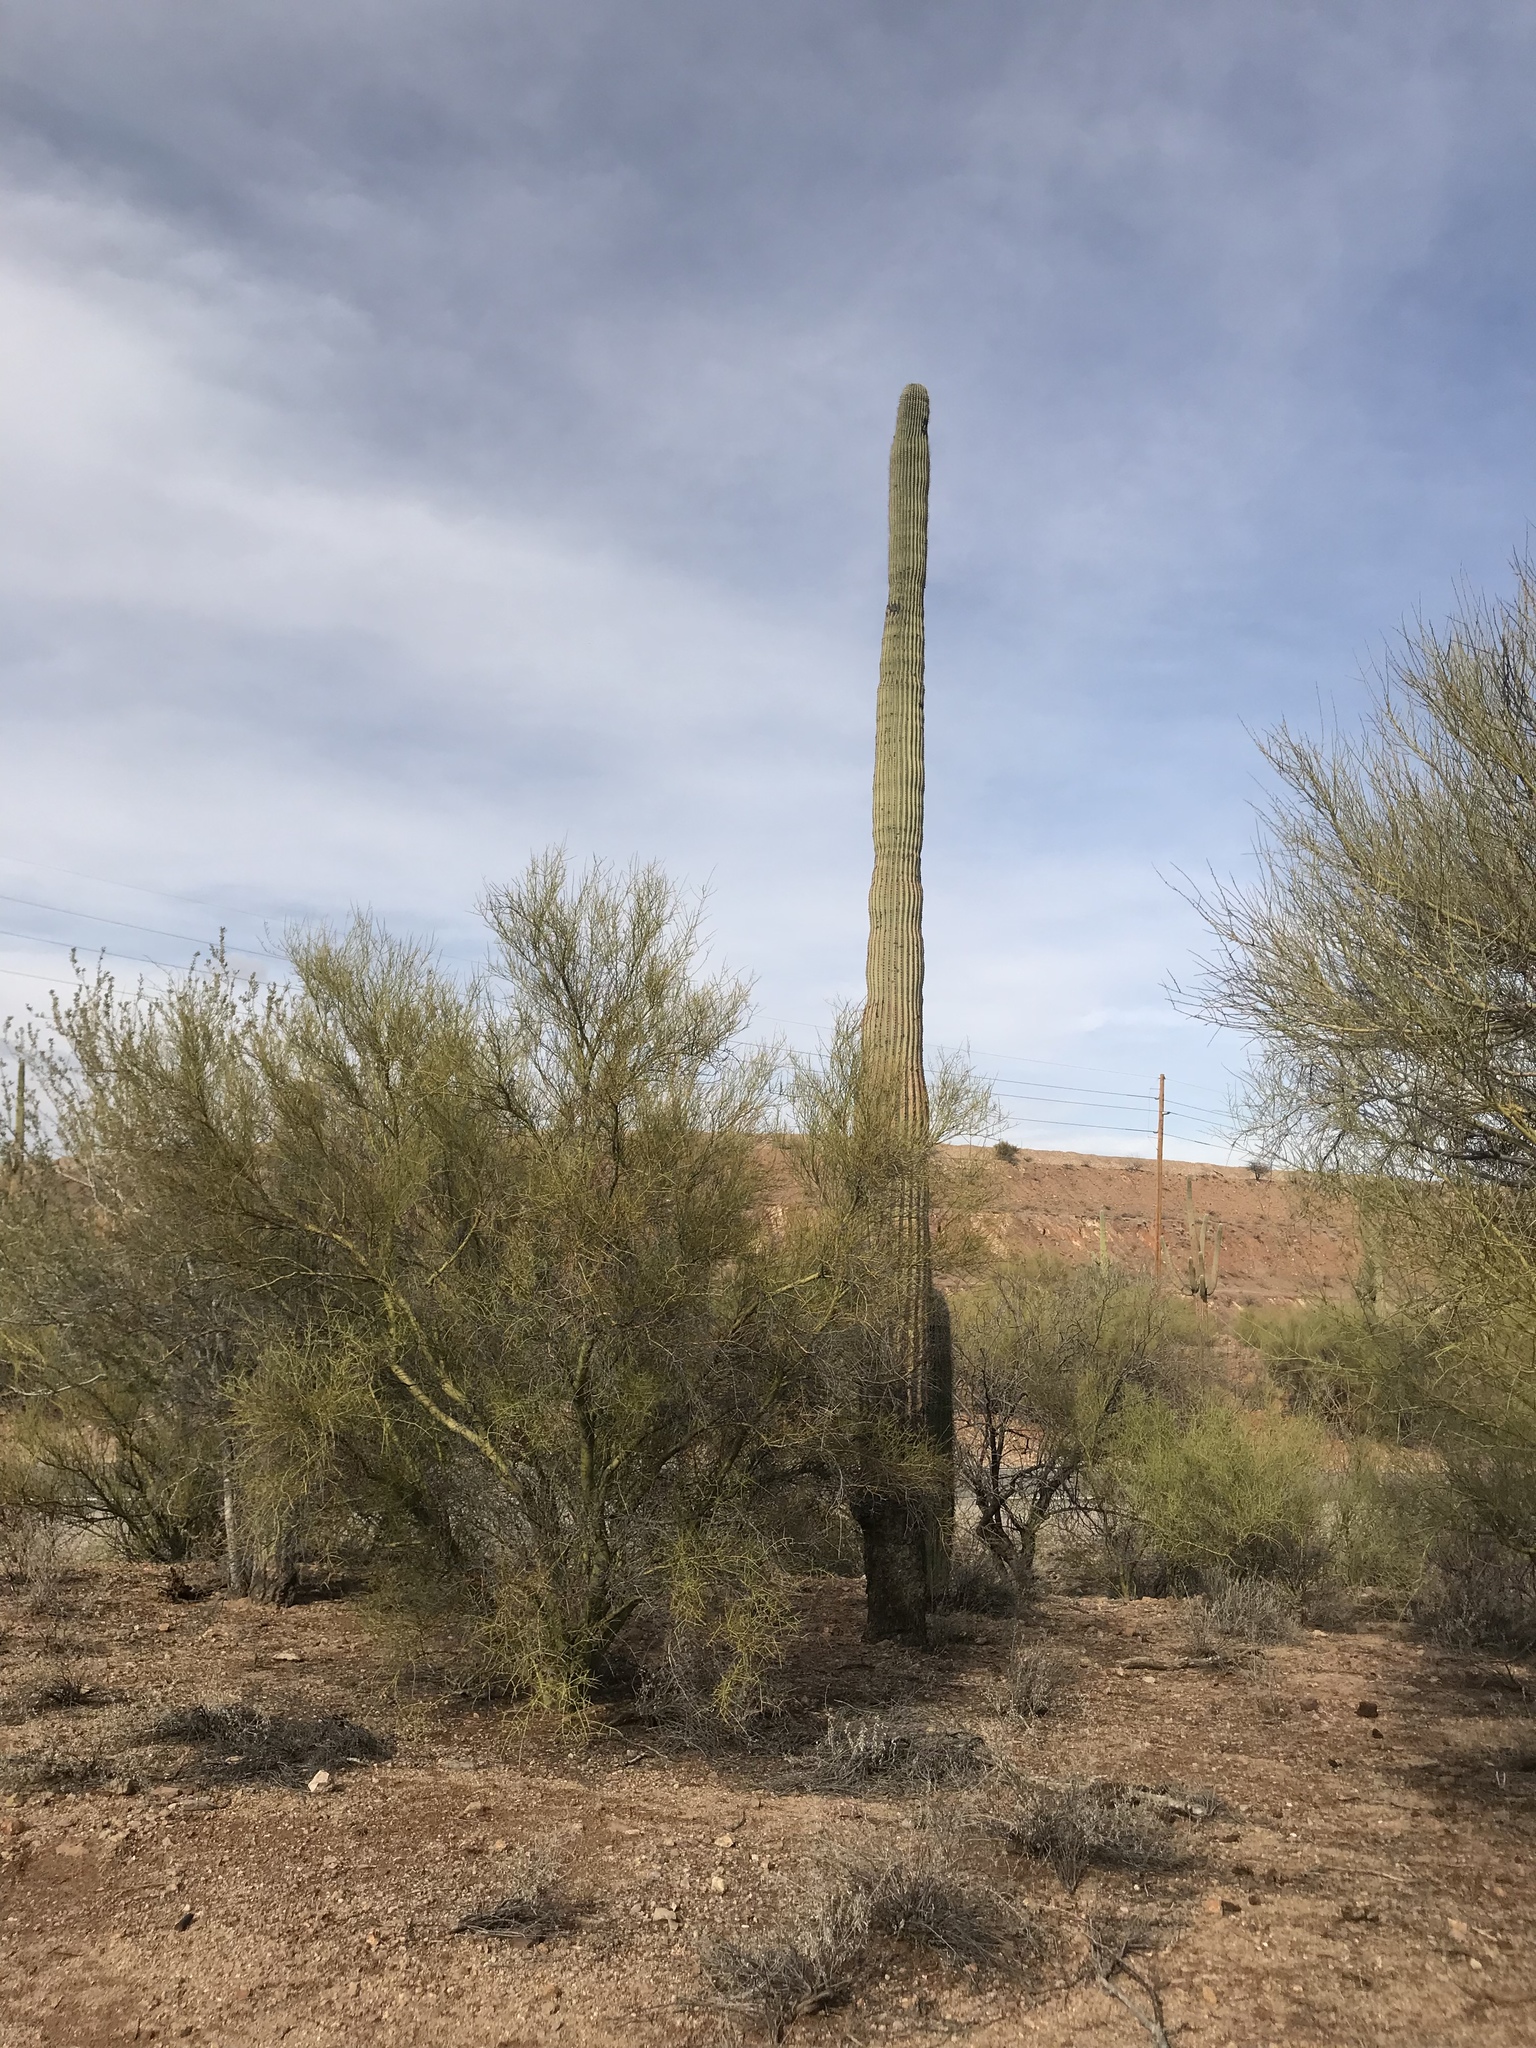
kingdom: Plantae
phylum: Tracheophyta
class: Magnoliopsida
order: Caryophyllales
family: Cactaceae
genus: Carnegiea
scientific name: Carnegiea gigantea
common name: Saguaro
